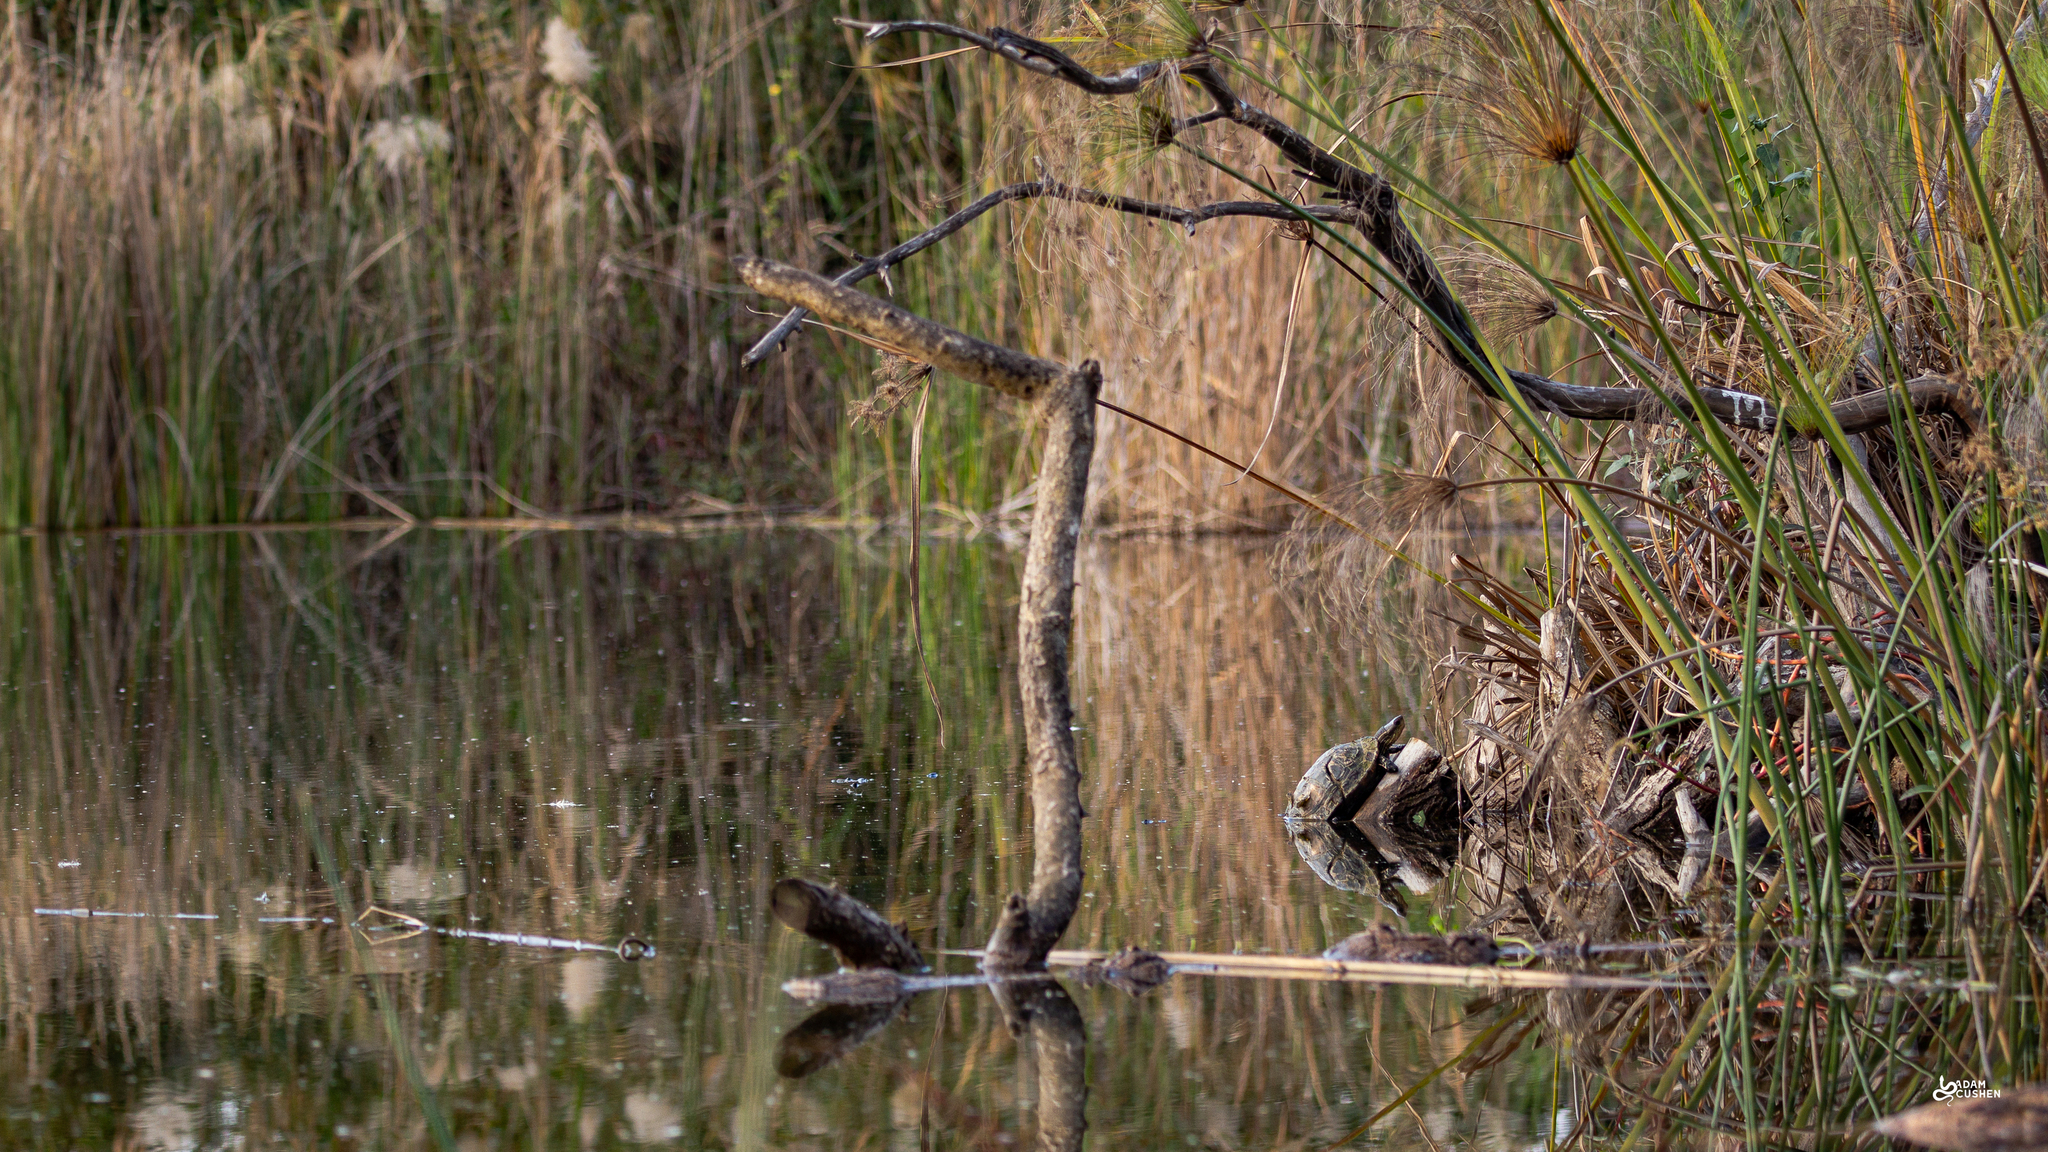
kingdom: Animalia
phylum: Chordata
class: Testudines
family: Geoemydidae
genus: Mauremys
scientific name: Mauremys rivulata
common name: Western caspian turtle
